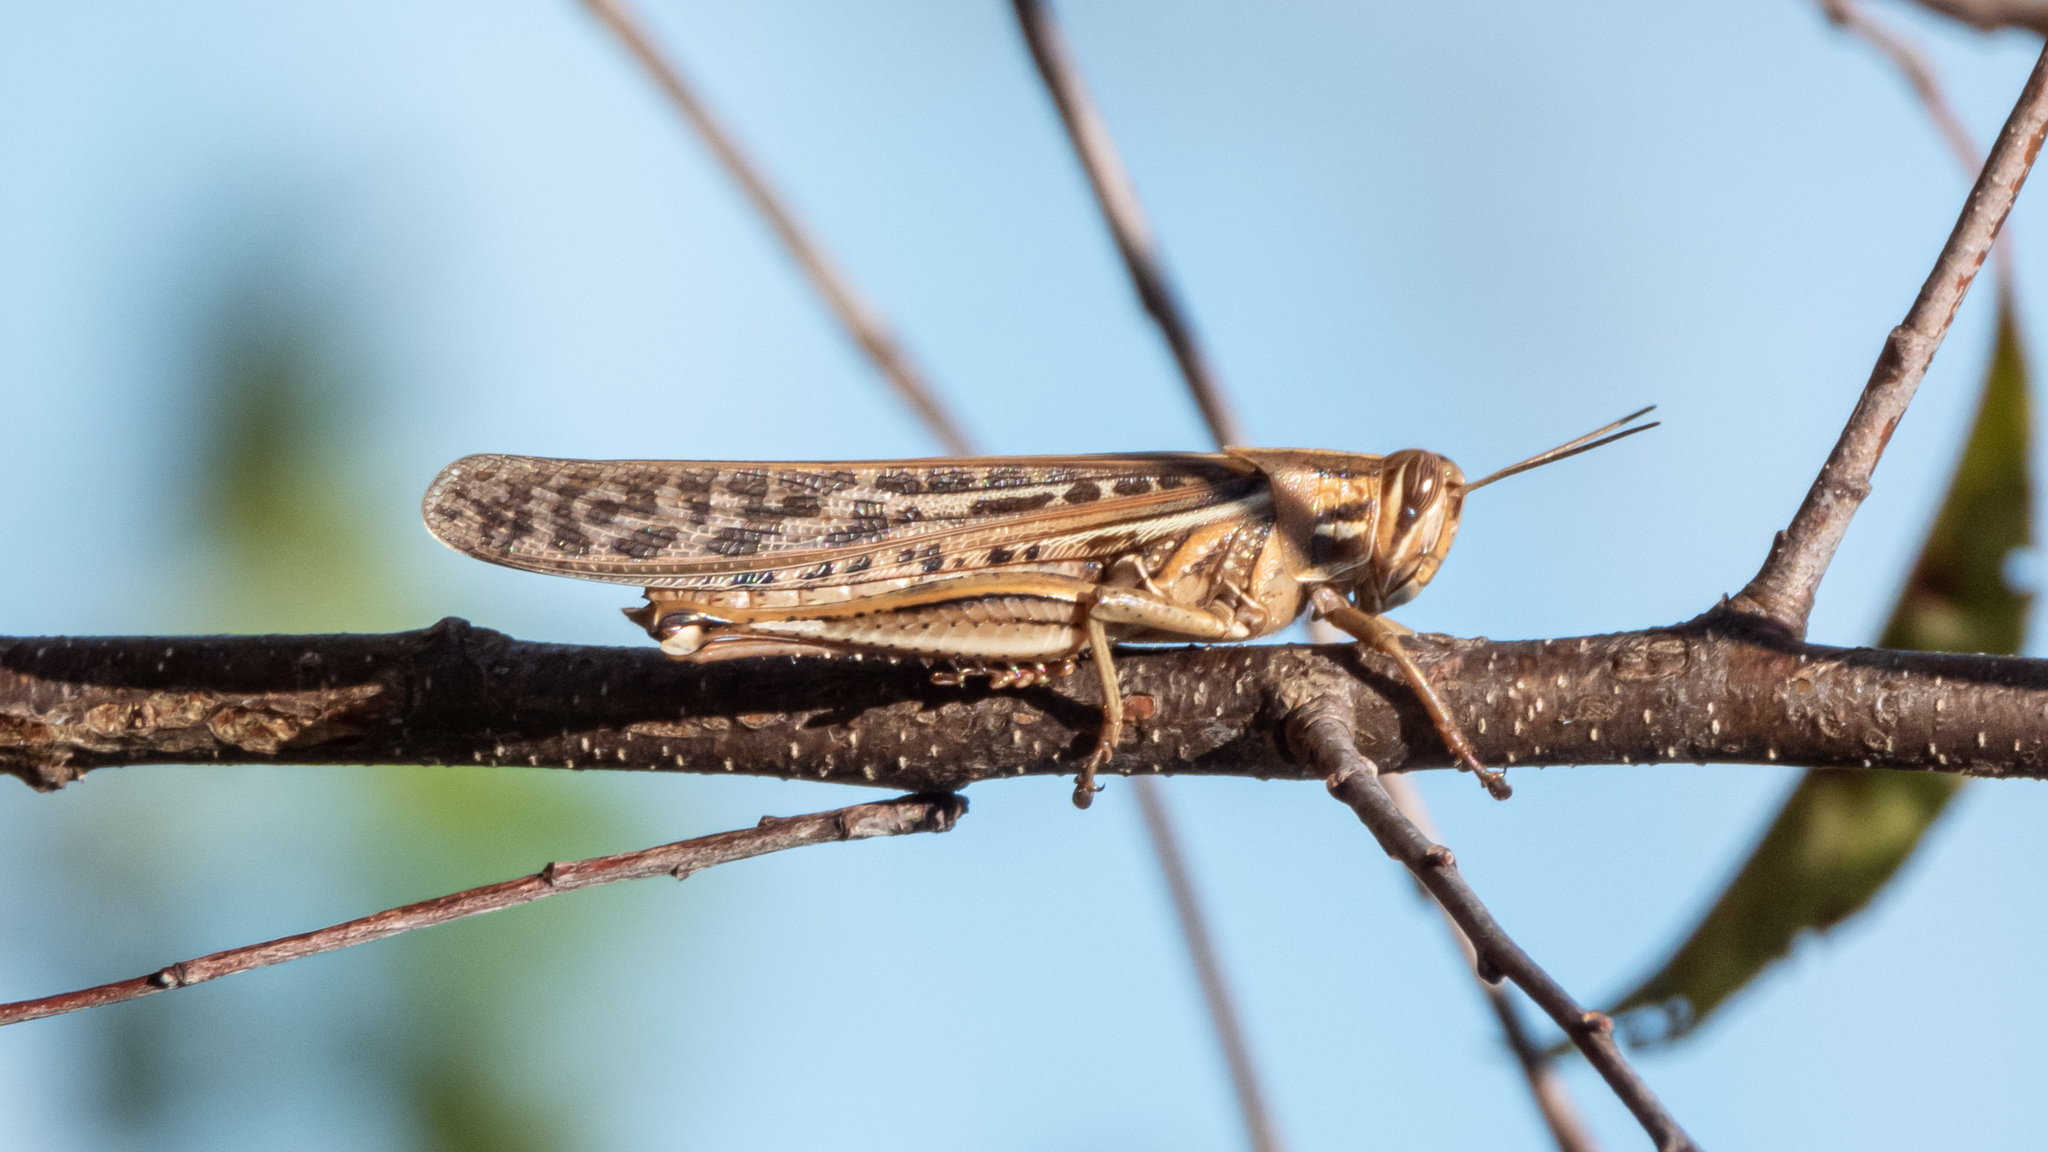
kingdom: Animalia
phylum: Arthropoda
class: Insecta
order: Orthoptera
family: Acrididae
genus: Schistocerca
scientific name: Schistocerca americana
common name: American bird locust
